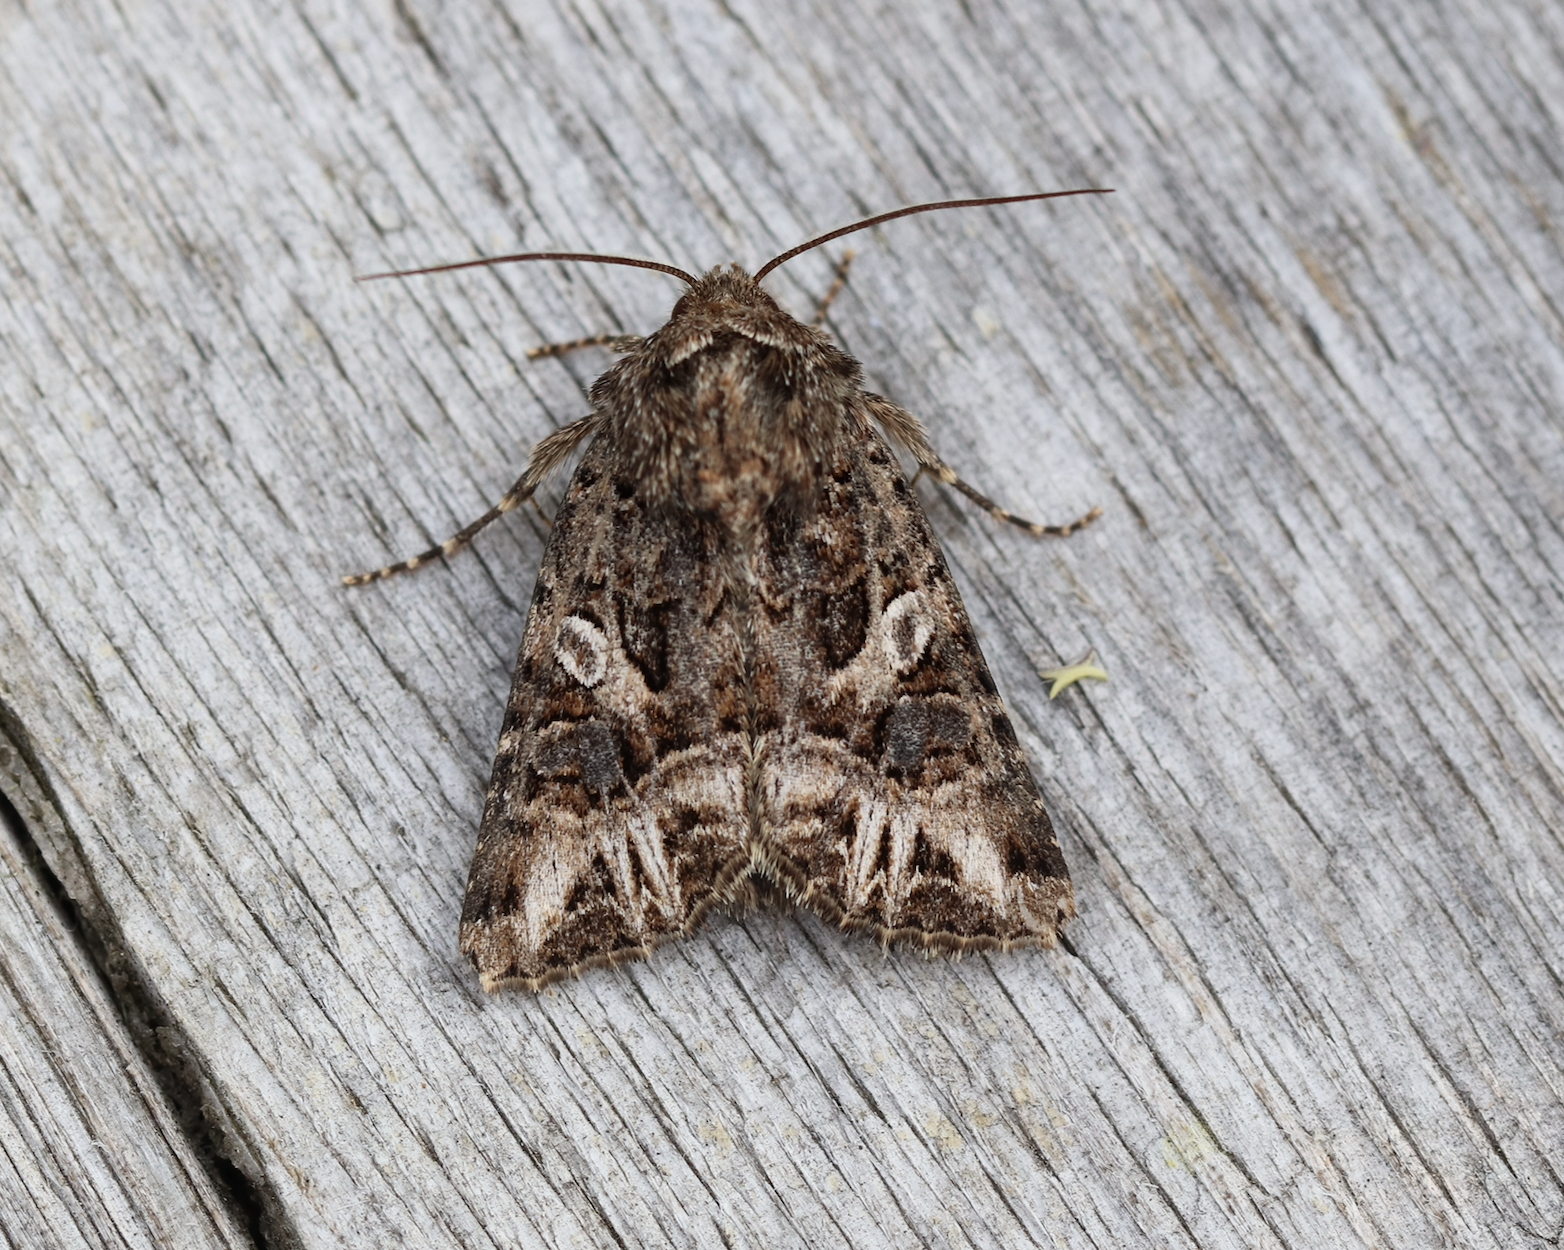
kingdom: Animalia
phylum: Arthropoda
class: Insecta
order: Lepidoptera
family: Noctuidae
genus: Anarta
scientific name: Anarta odontites
